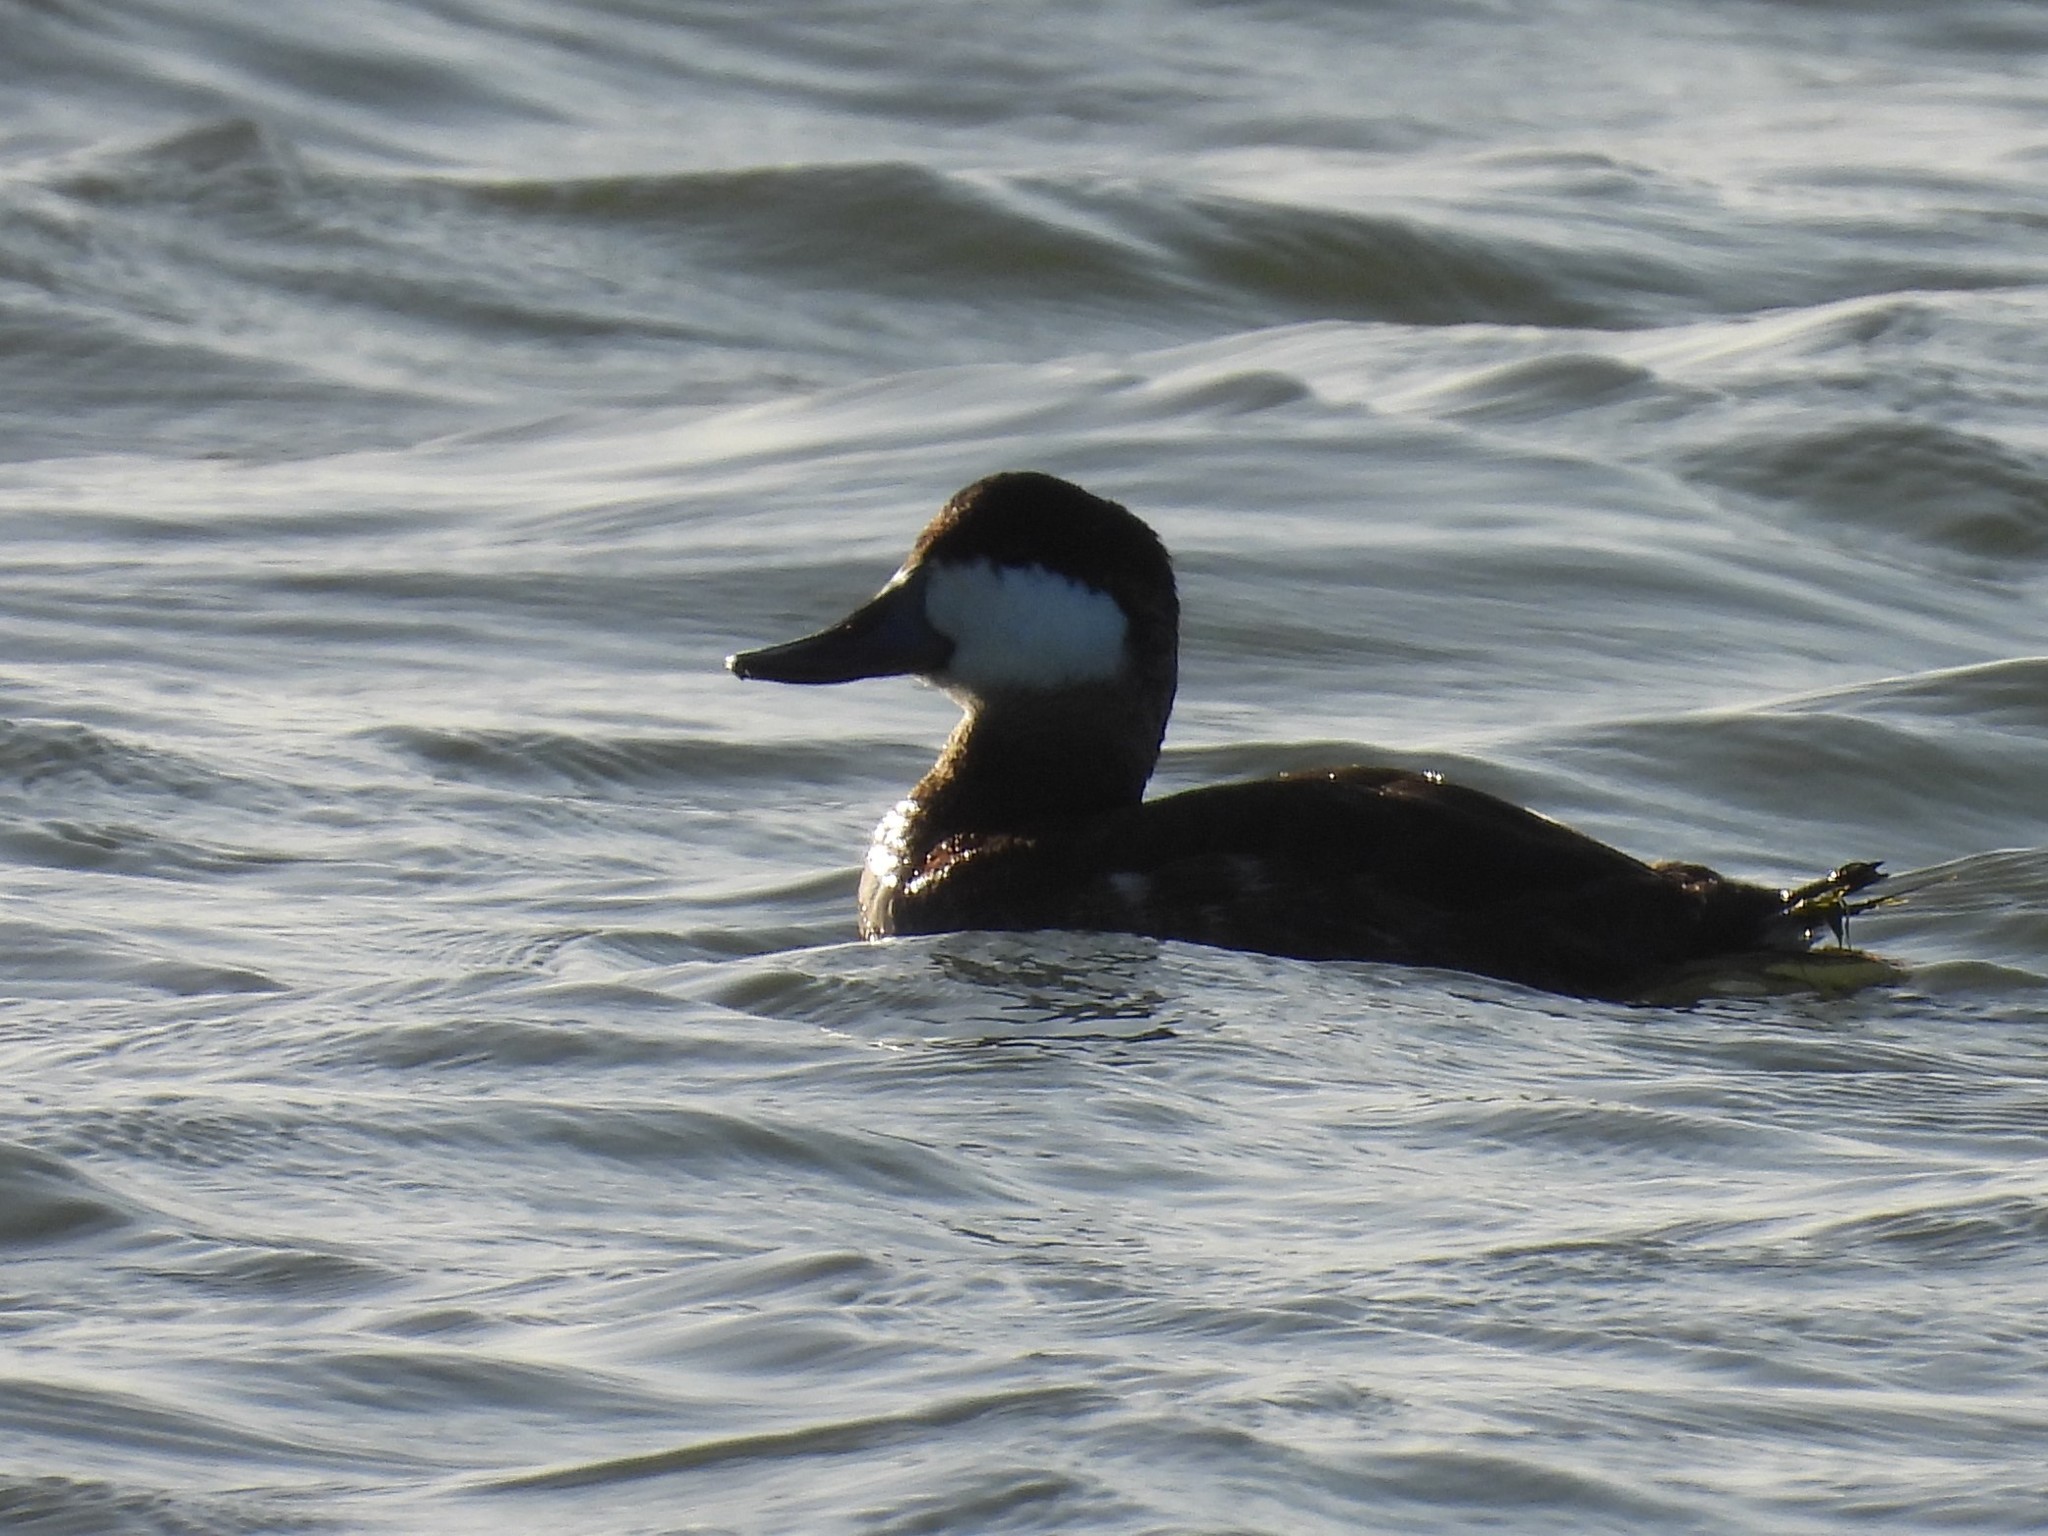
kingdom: Animalia
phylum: Chordata
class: Aves
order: Anseriformes
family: Anatidae
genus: Oxyura
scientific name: Oxyura jamaicensis
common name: Ruddy duck
